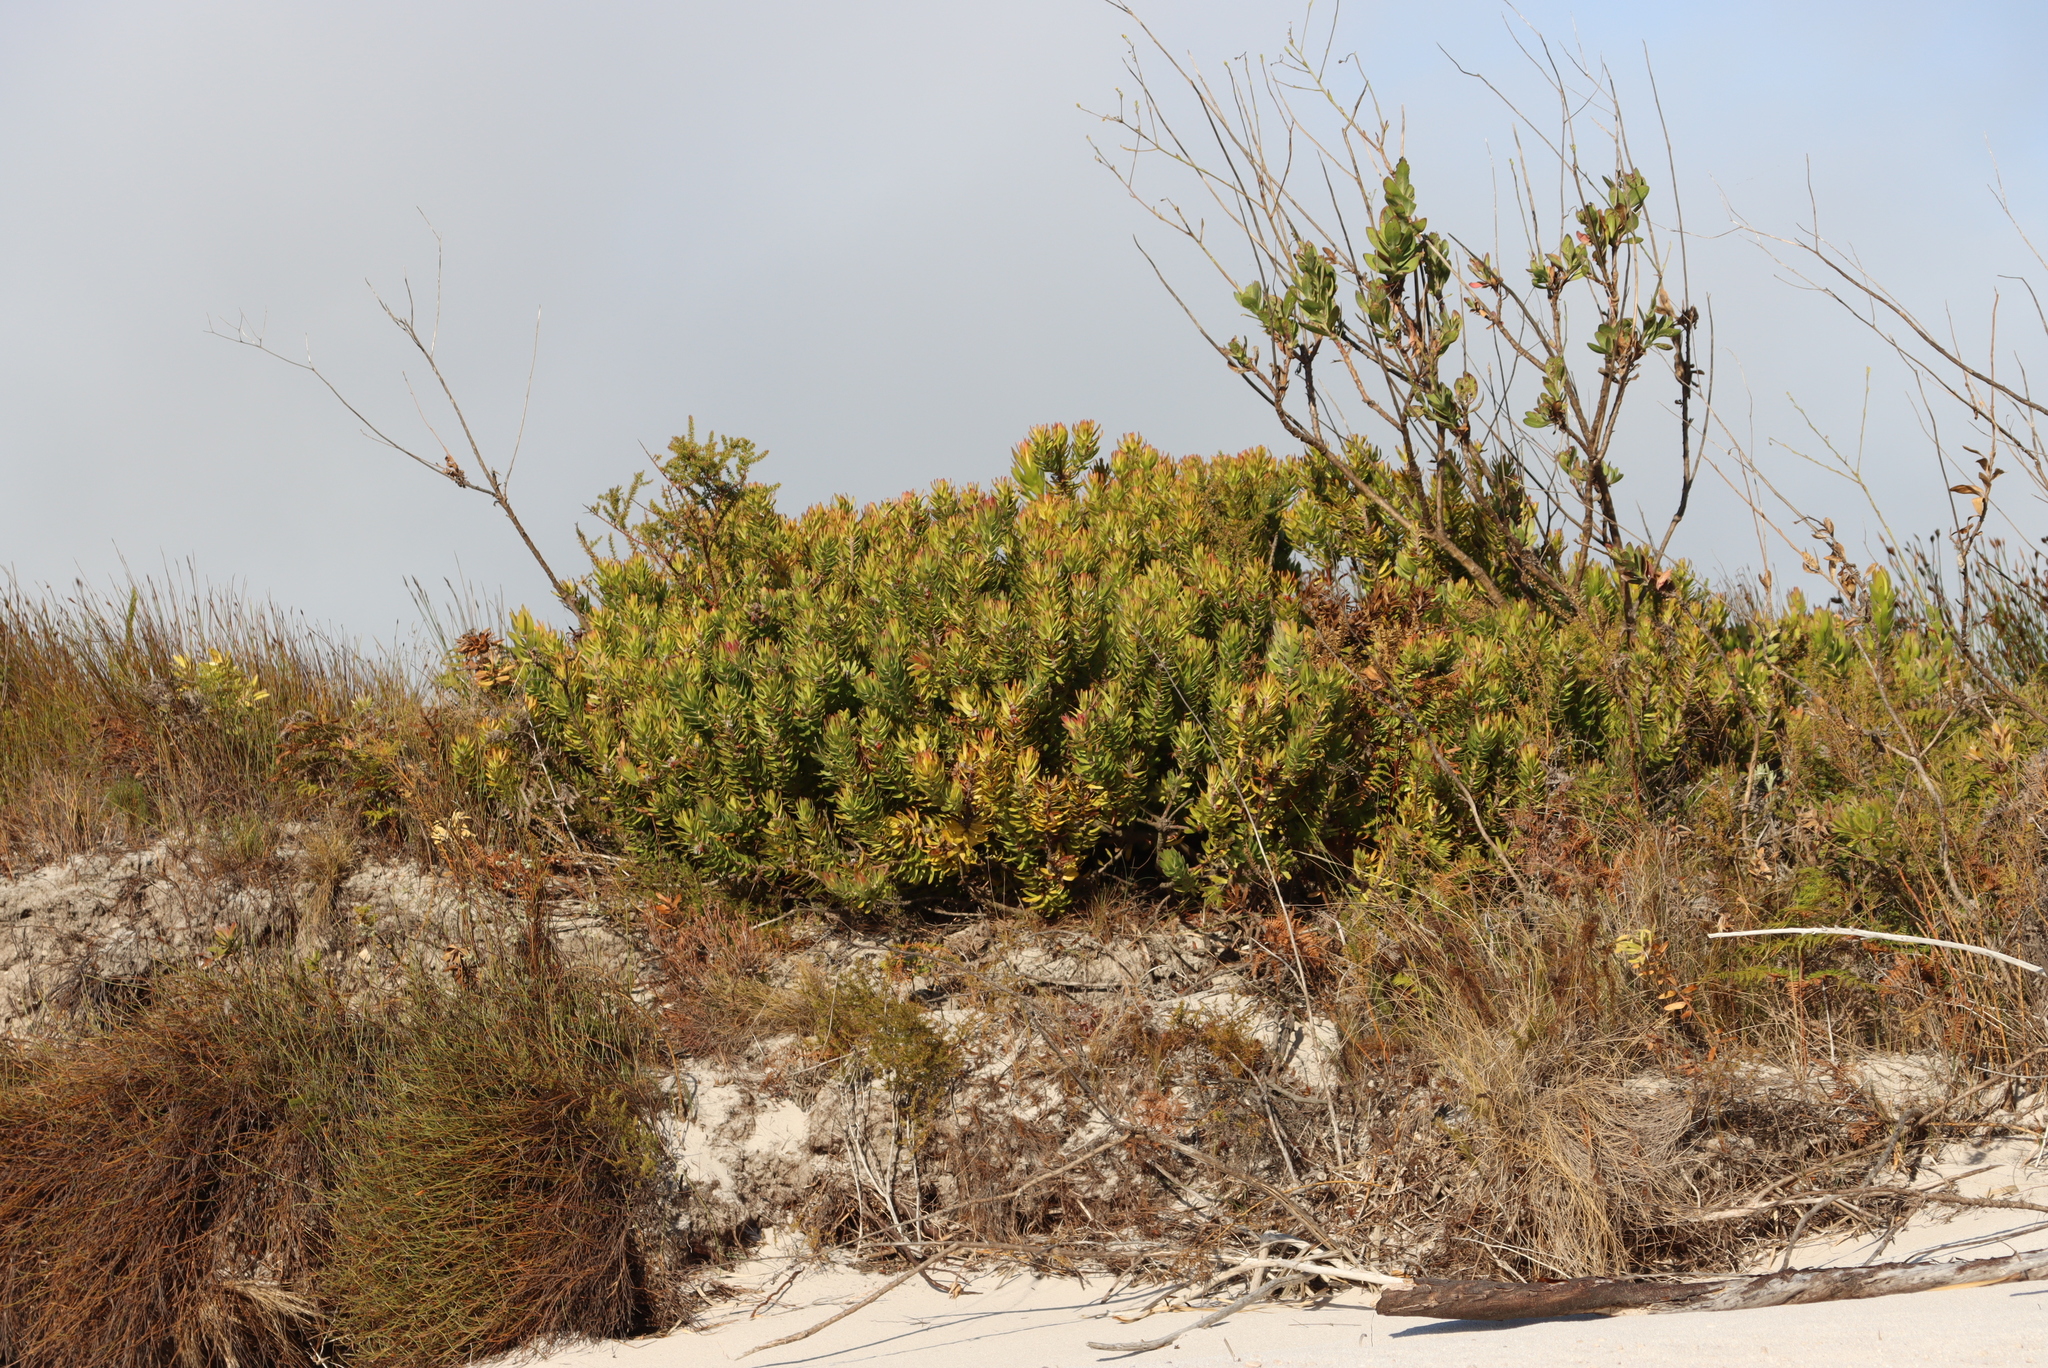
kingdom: Plantae
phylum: Tracheophyta
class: Magnoliopsida
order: Proteales
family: Proteaceae
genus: Mimetes
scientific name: Mimetes cucullatus
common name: Common pagoda
